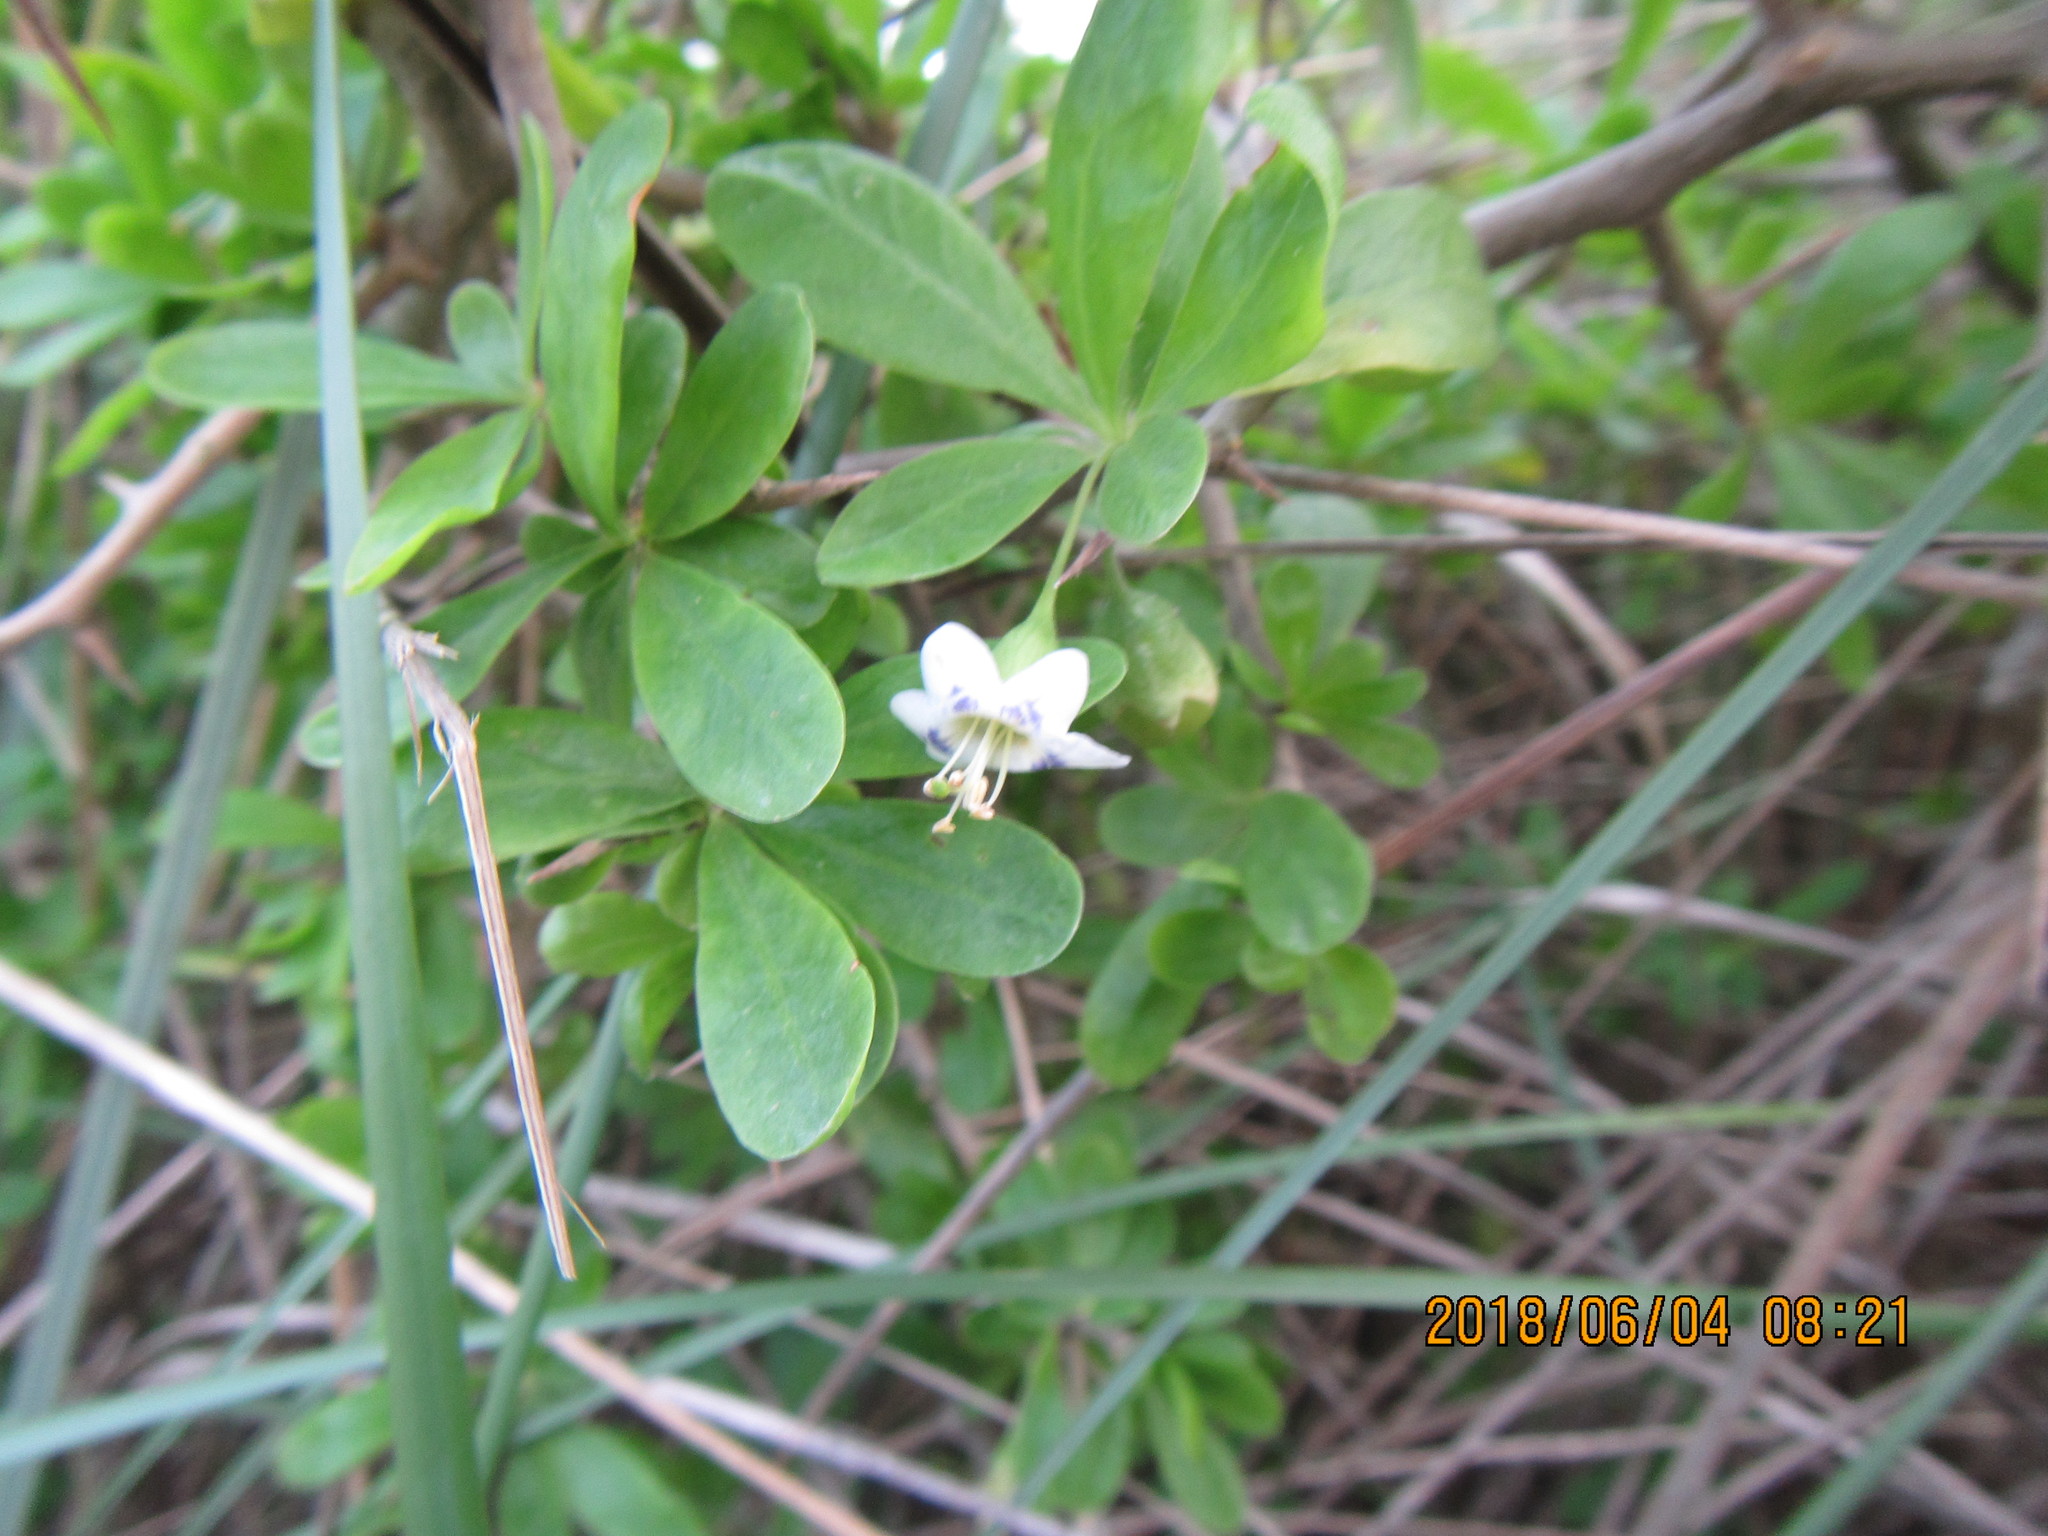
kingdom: Plantae
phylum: Tracheophyta
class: Magnoliopsida
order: Solanales
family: Solanaceae
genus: Lycium
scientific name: Lycium ferocissimum
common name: African boxthorn
